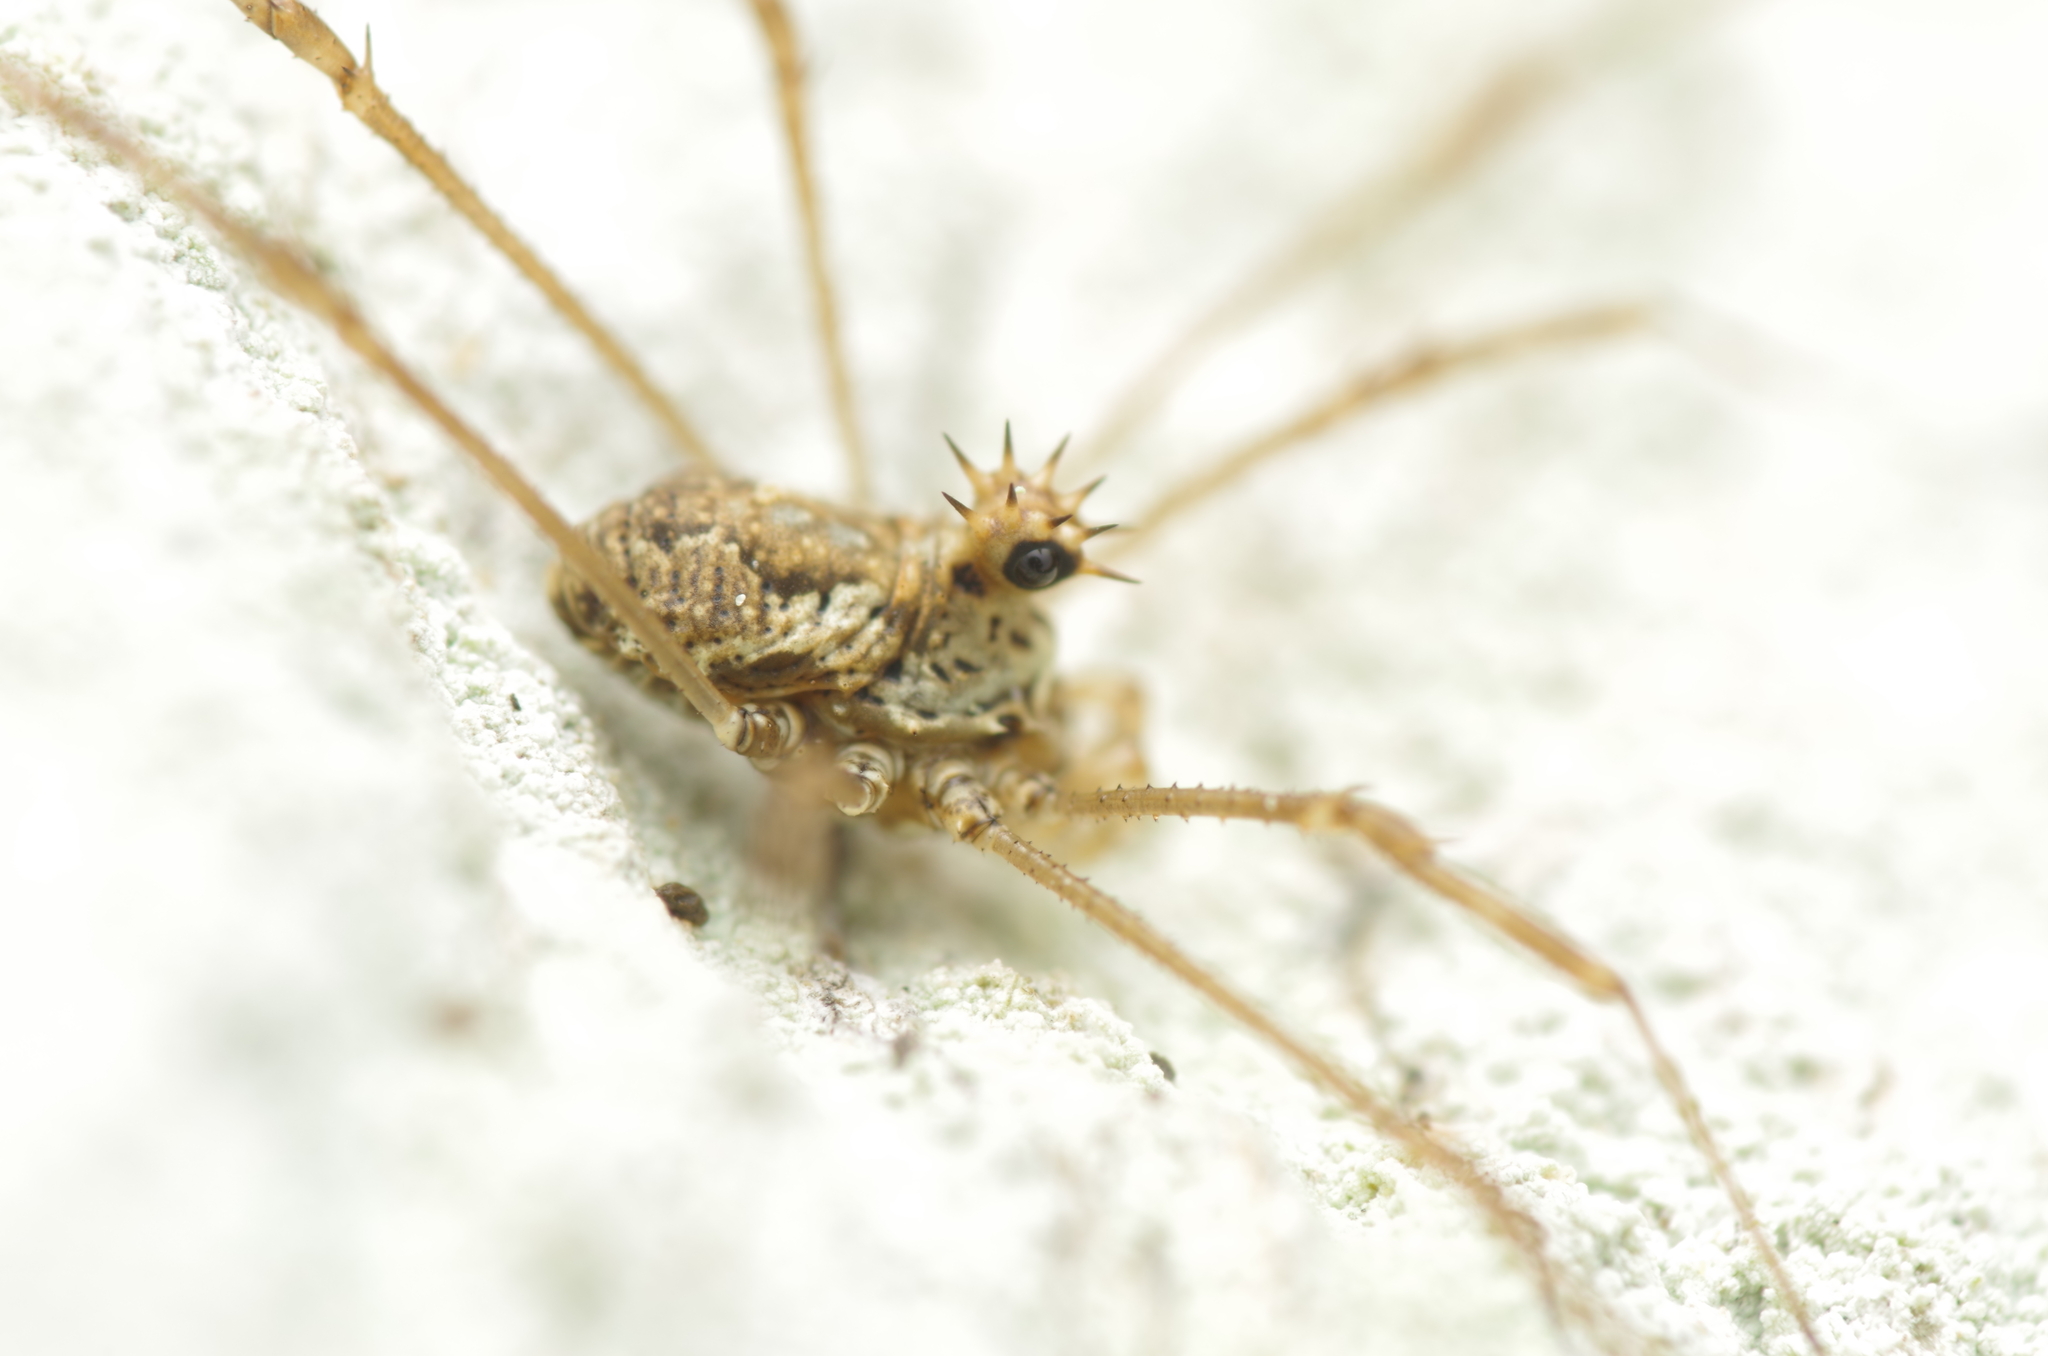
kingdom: Animalia
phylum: Arthropoda
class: Arachnida
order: Opiliones
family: Phalangiidae
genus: Megabunus
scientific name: Megabunus diadema
